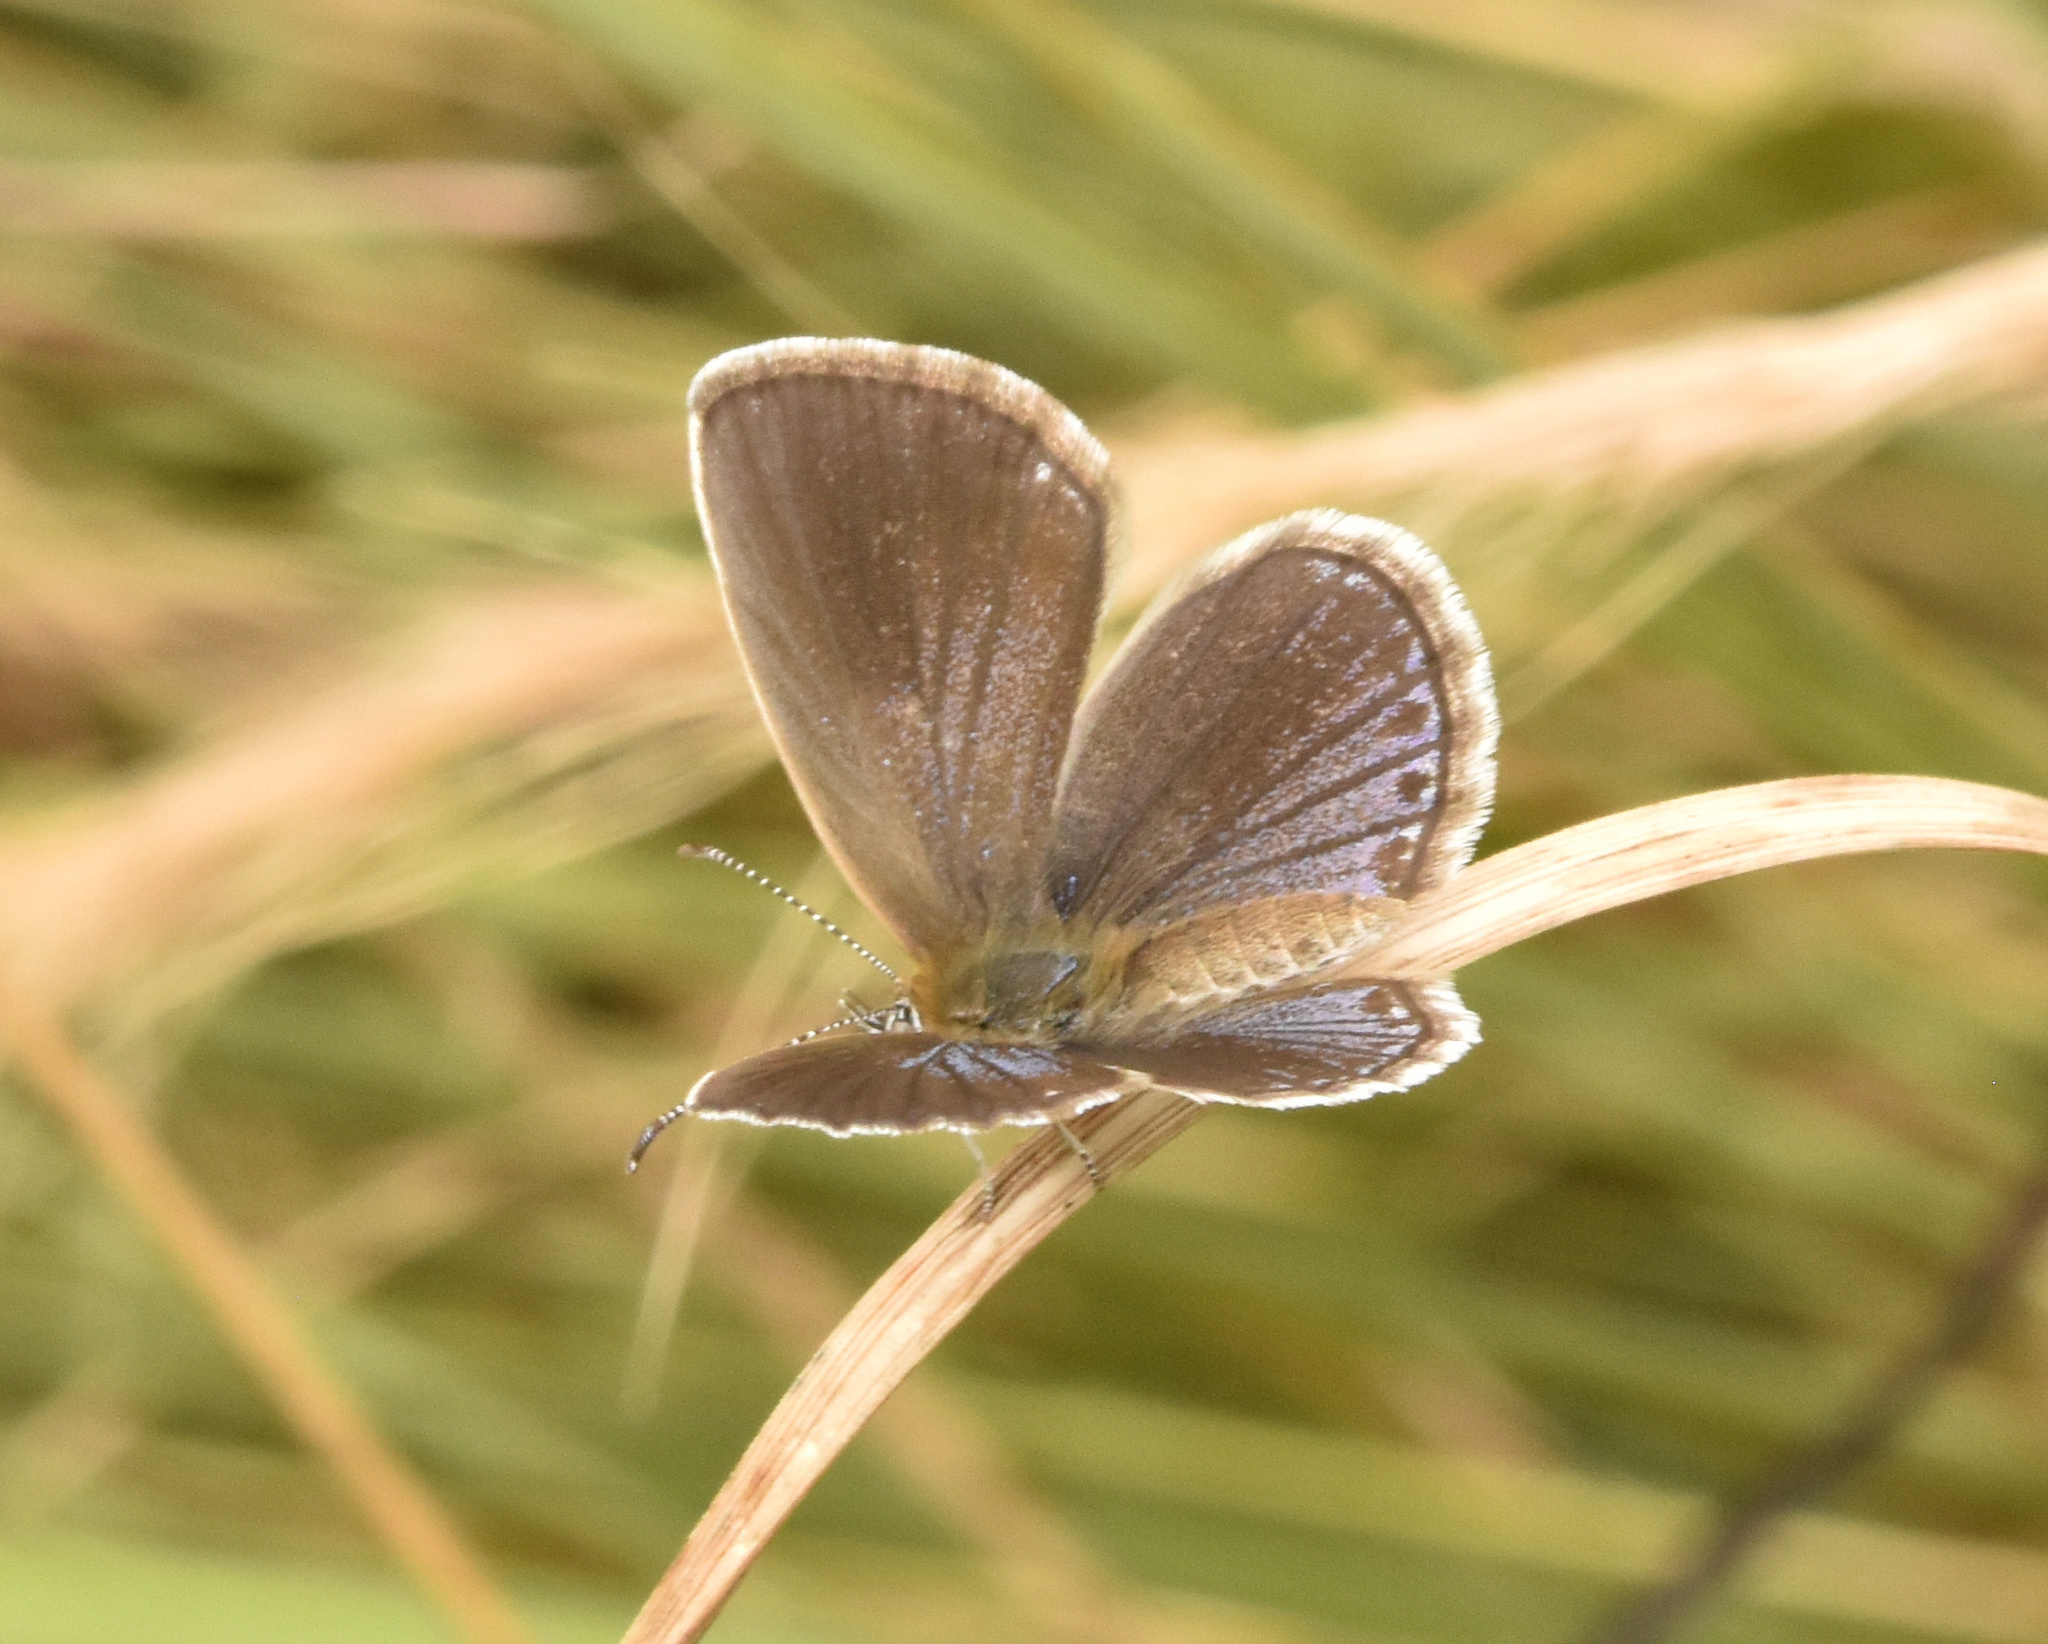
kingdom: Animalia
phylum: Arthropoda
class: Insecta
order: Lepidoptera
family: Lycaenidae
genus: Actizera
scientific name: Actizera lucida
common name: Rayed blue
